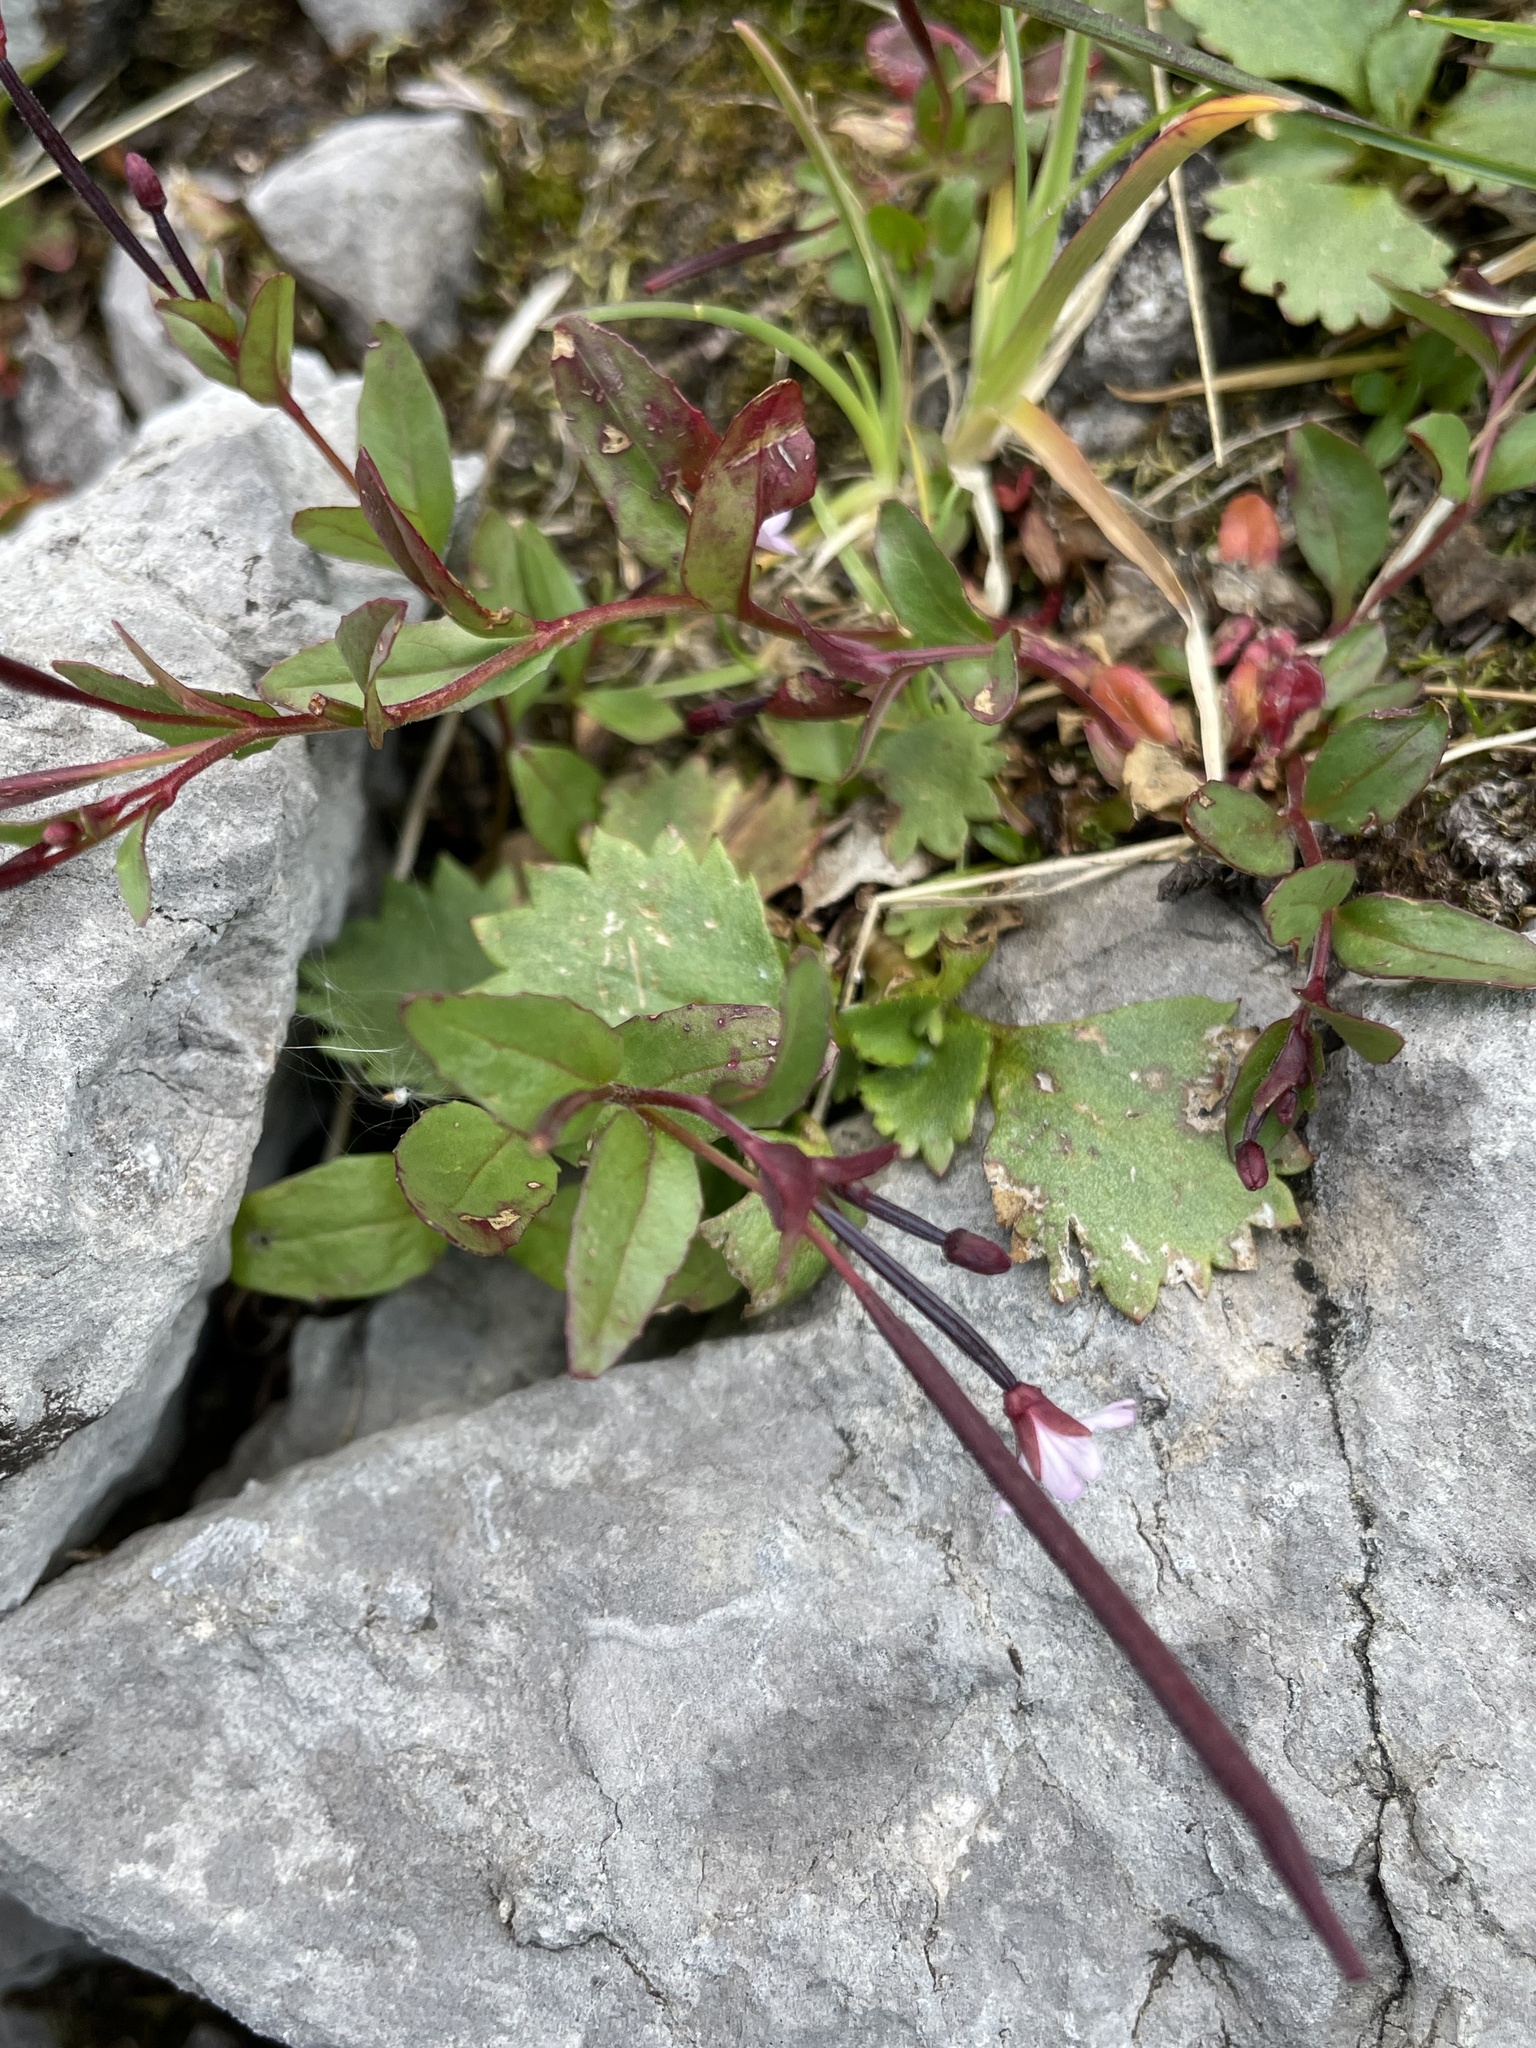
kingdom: Plantae
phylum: Tracheophyta
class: Magnoliopsida
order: Myrtales
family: Onagraceae
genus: Epilobium
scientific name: Epilobium ciliatum
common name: American willowherb
